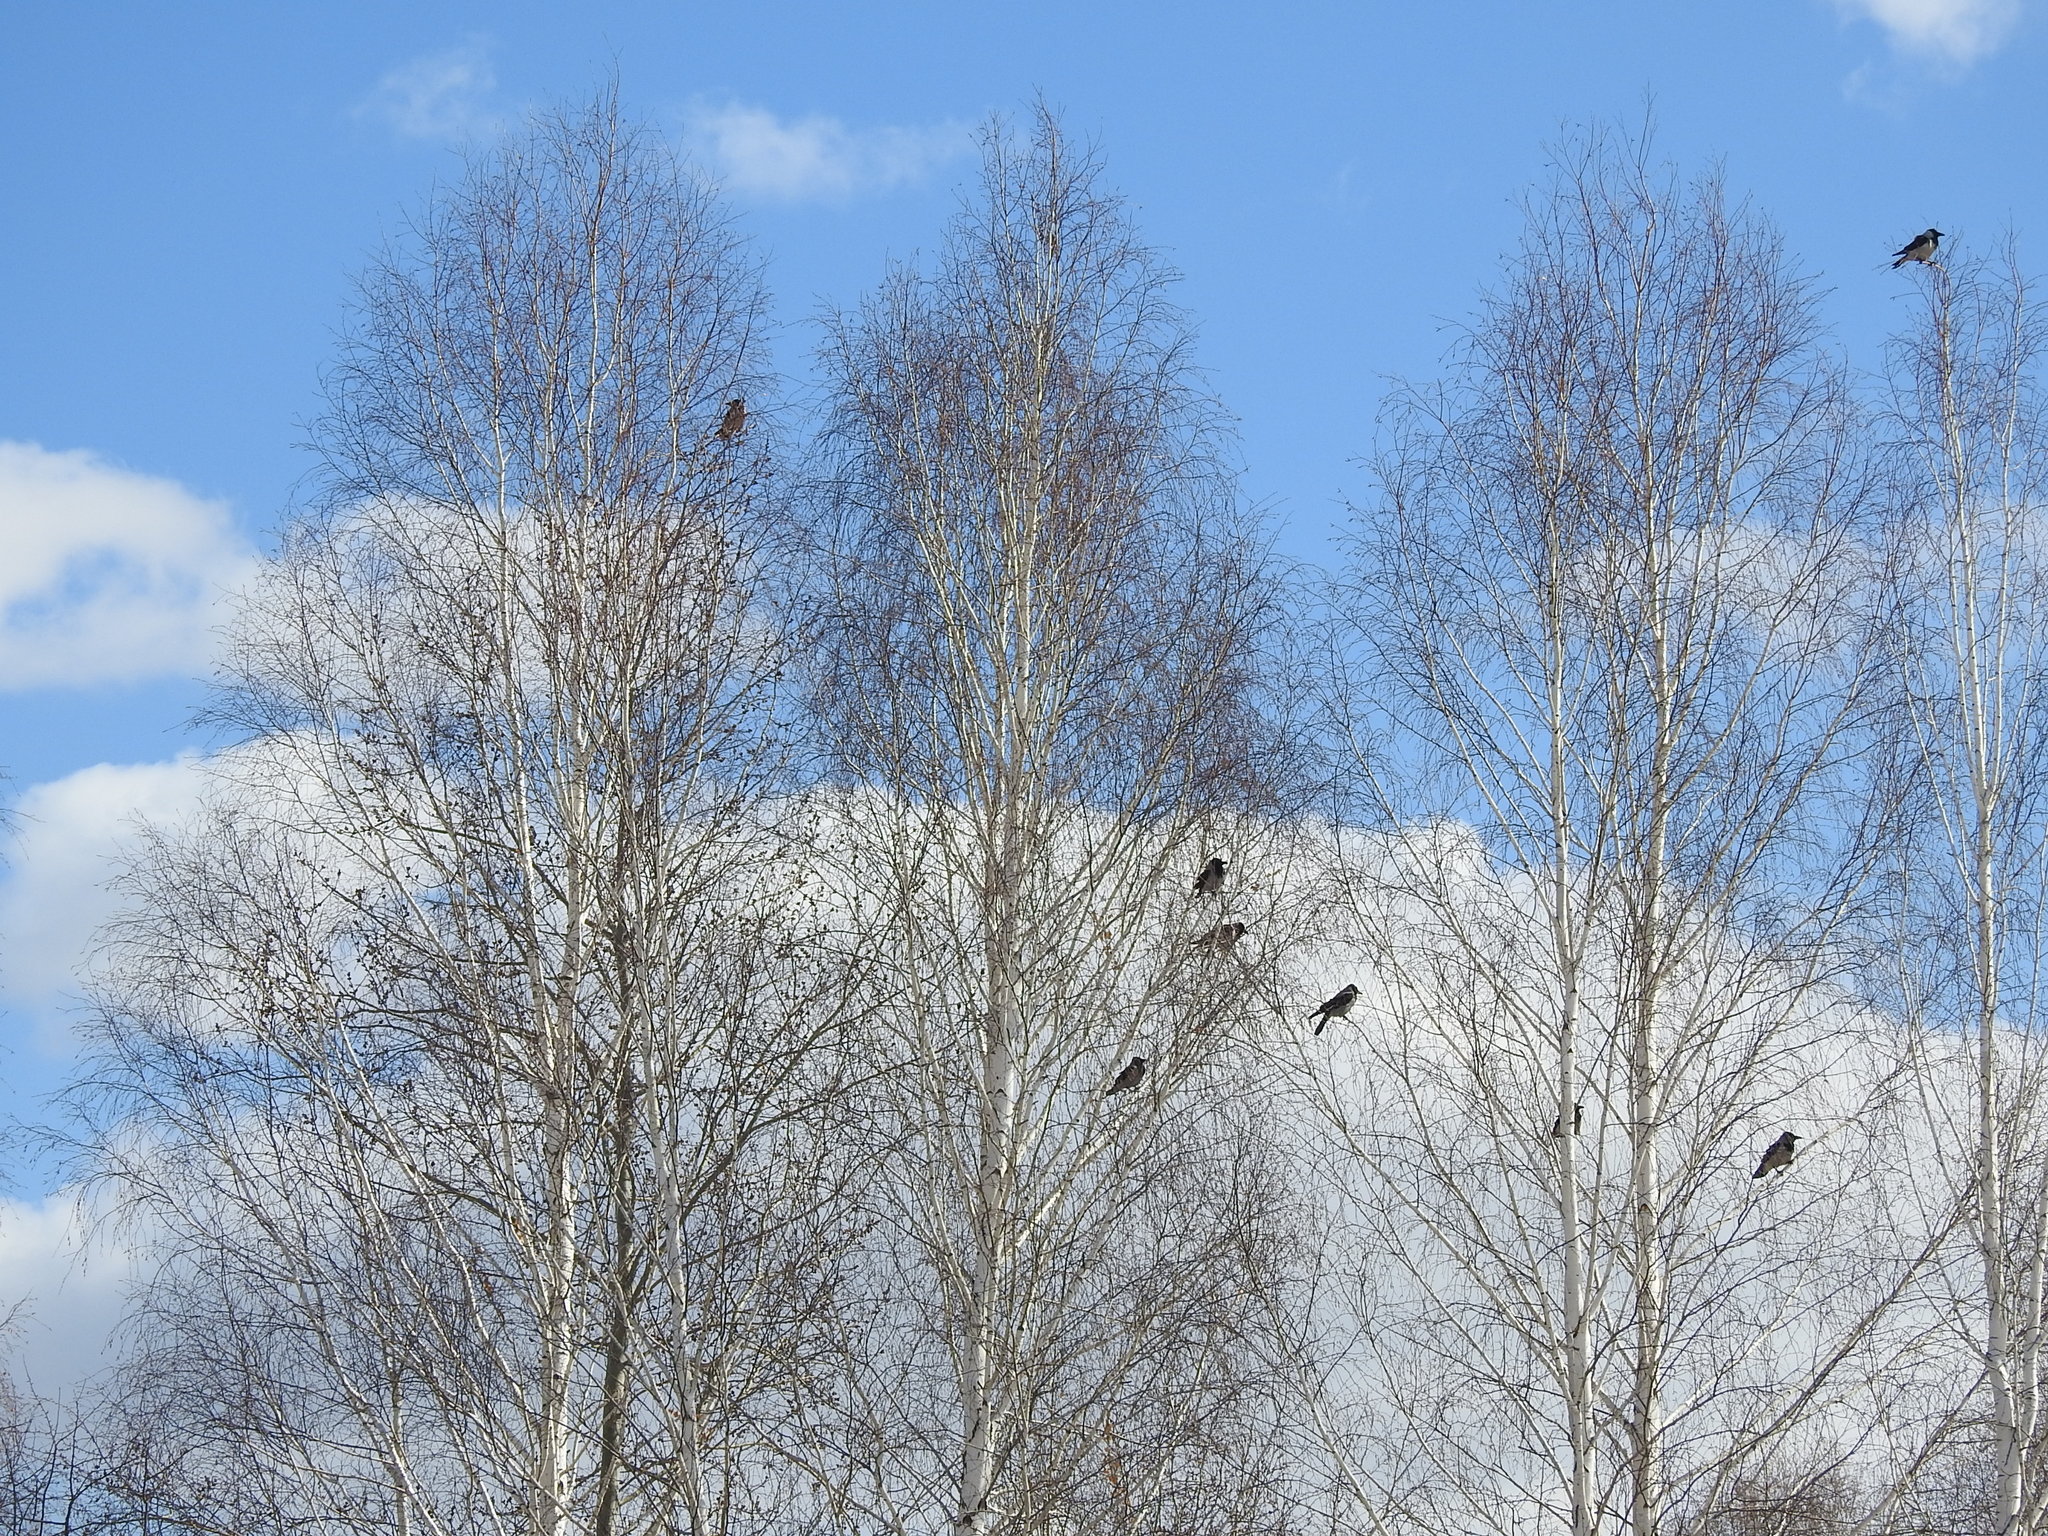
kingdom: Animalia
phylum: Chordata
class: Aves
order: Passeriformes
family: Corvidae
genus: Corvus
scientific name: Corvus cornix
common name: Hooded crow
